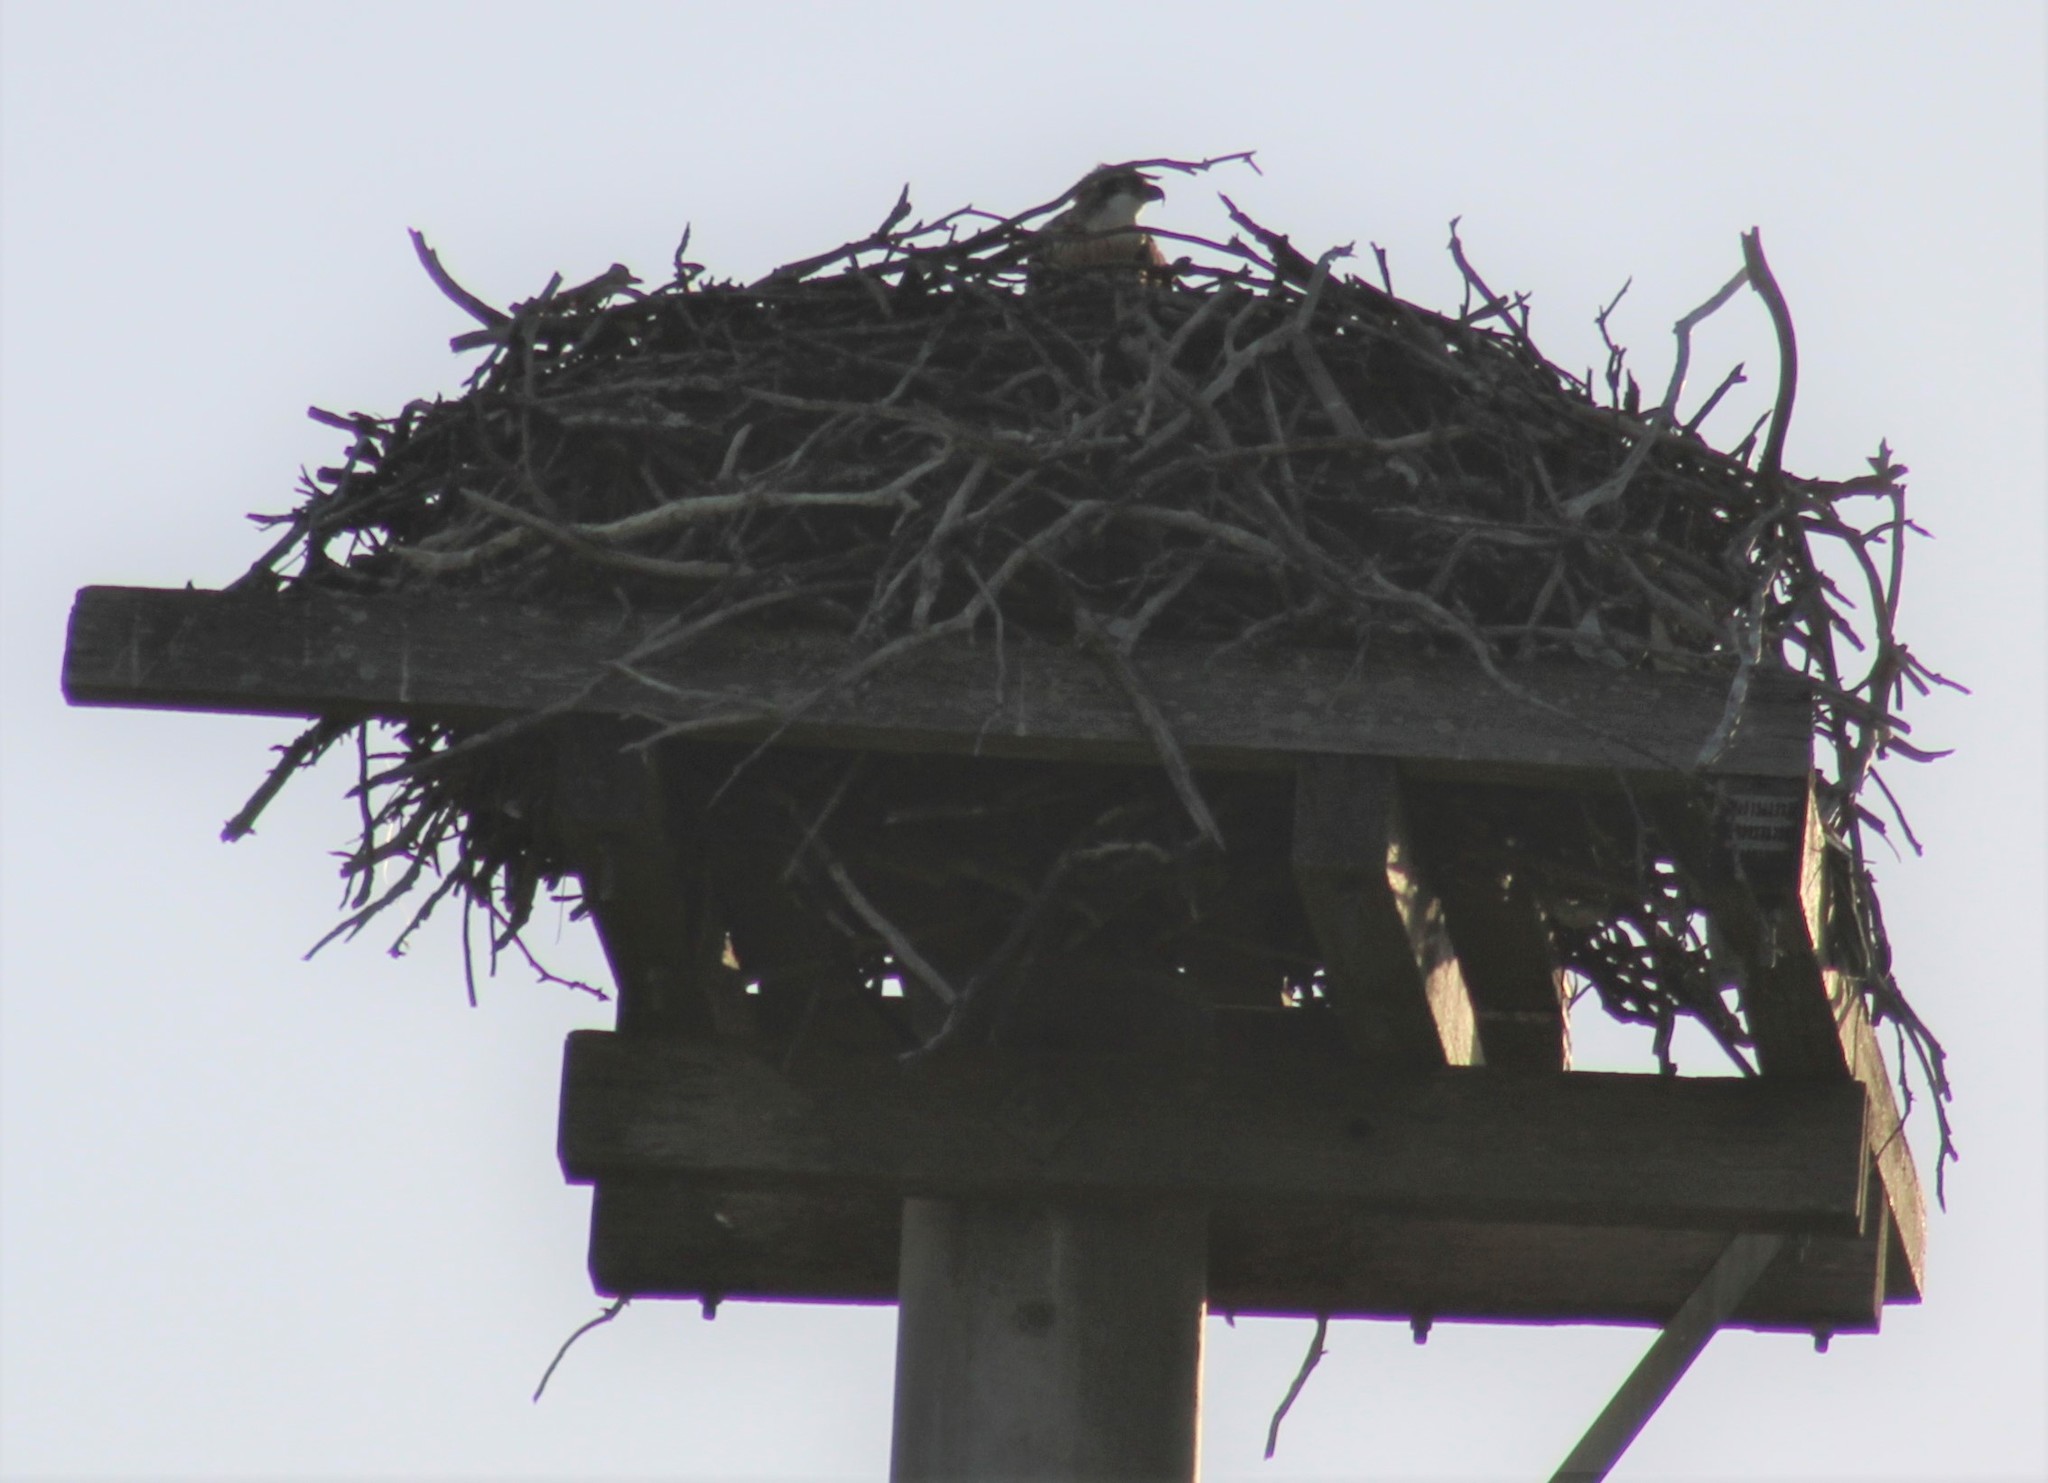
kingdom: Animalia
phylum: Chordata
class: Aves
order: Accipitriformes
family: Pandionidae
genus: Pandion
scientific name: Pandion cristatus
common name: Eastern osprey
